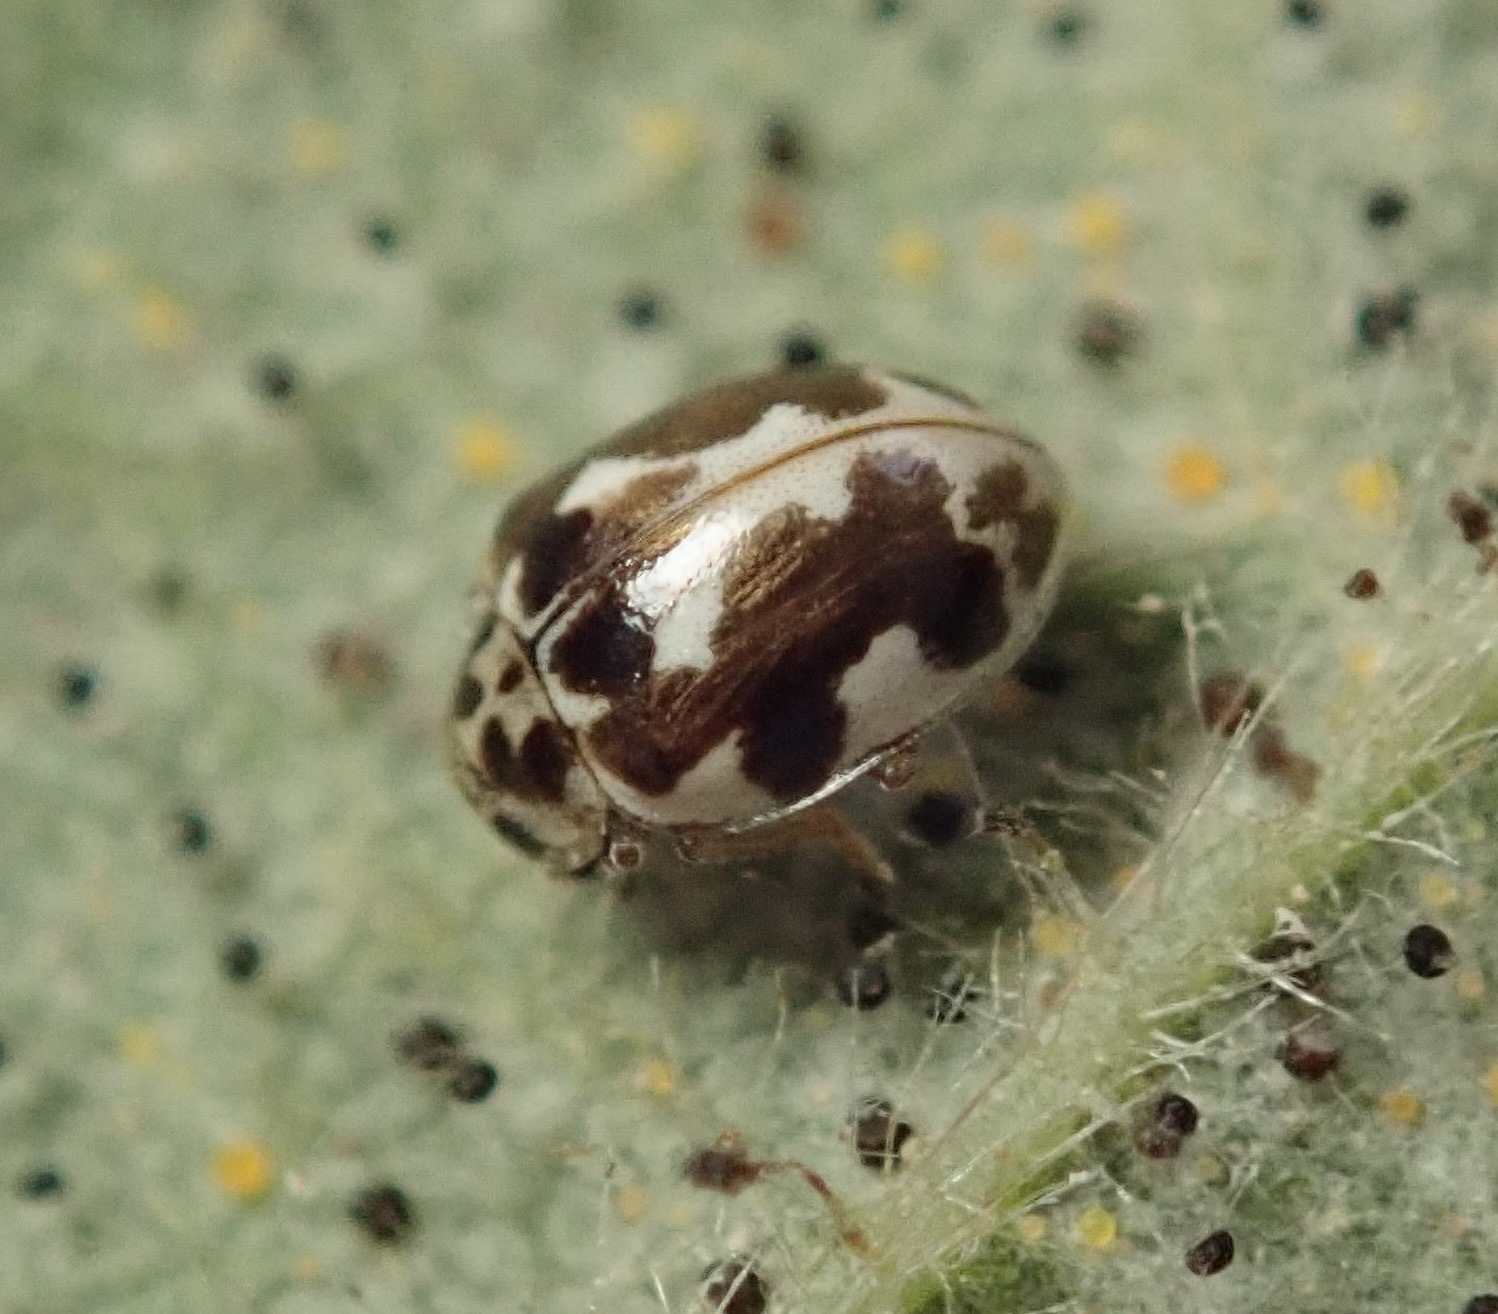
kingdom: Animalia
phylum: Arthropoda
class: Insecta
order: Coleoptera
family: Coccinellidae
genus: Psyllobora
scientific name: Psyllobora vigintimaculata
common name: Ladybird beetle
